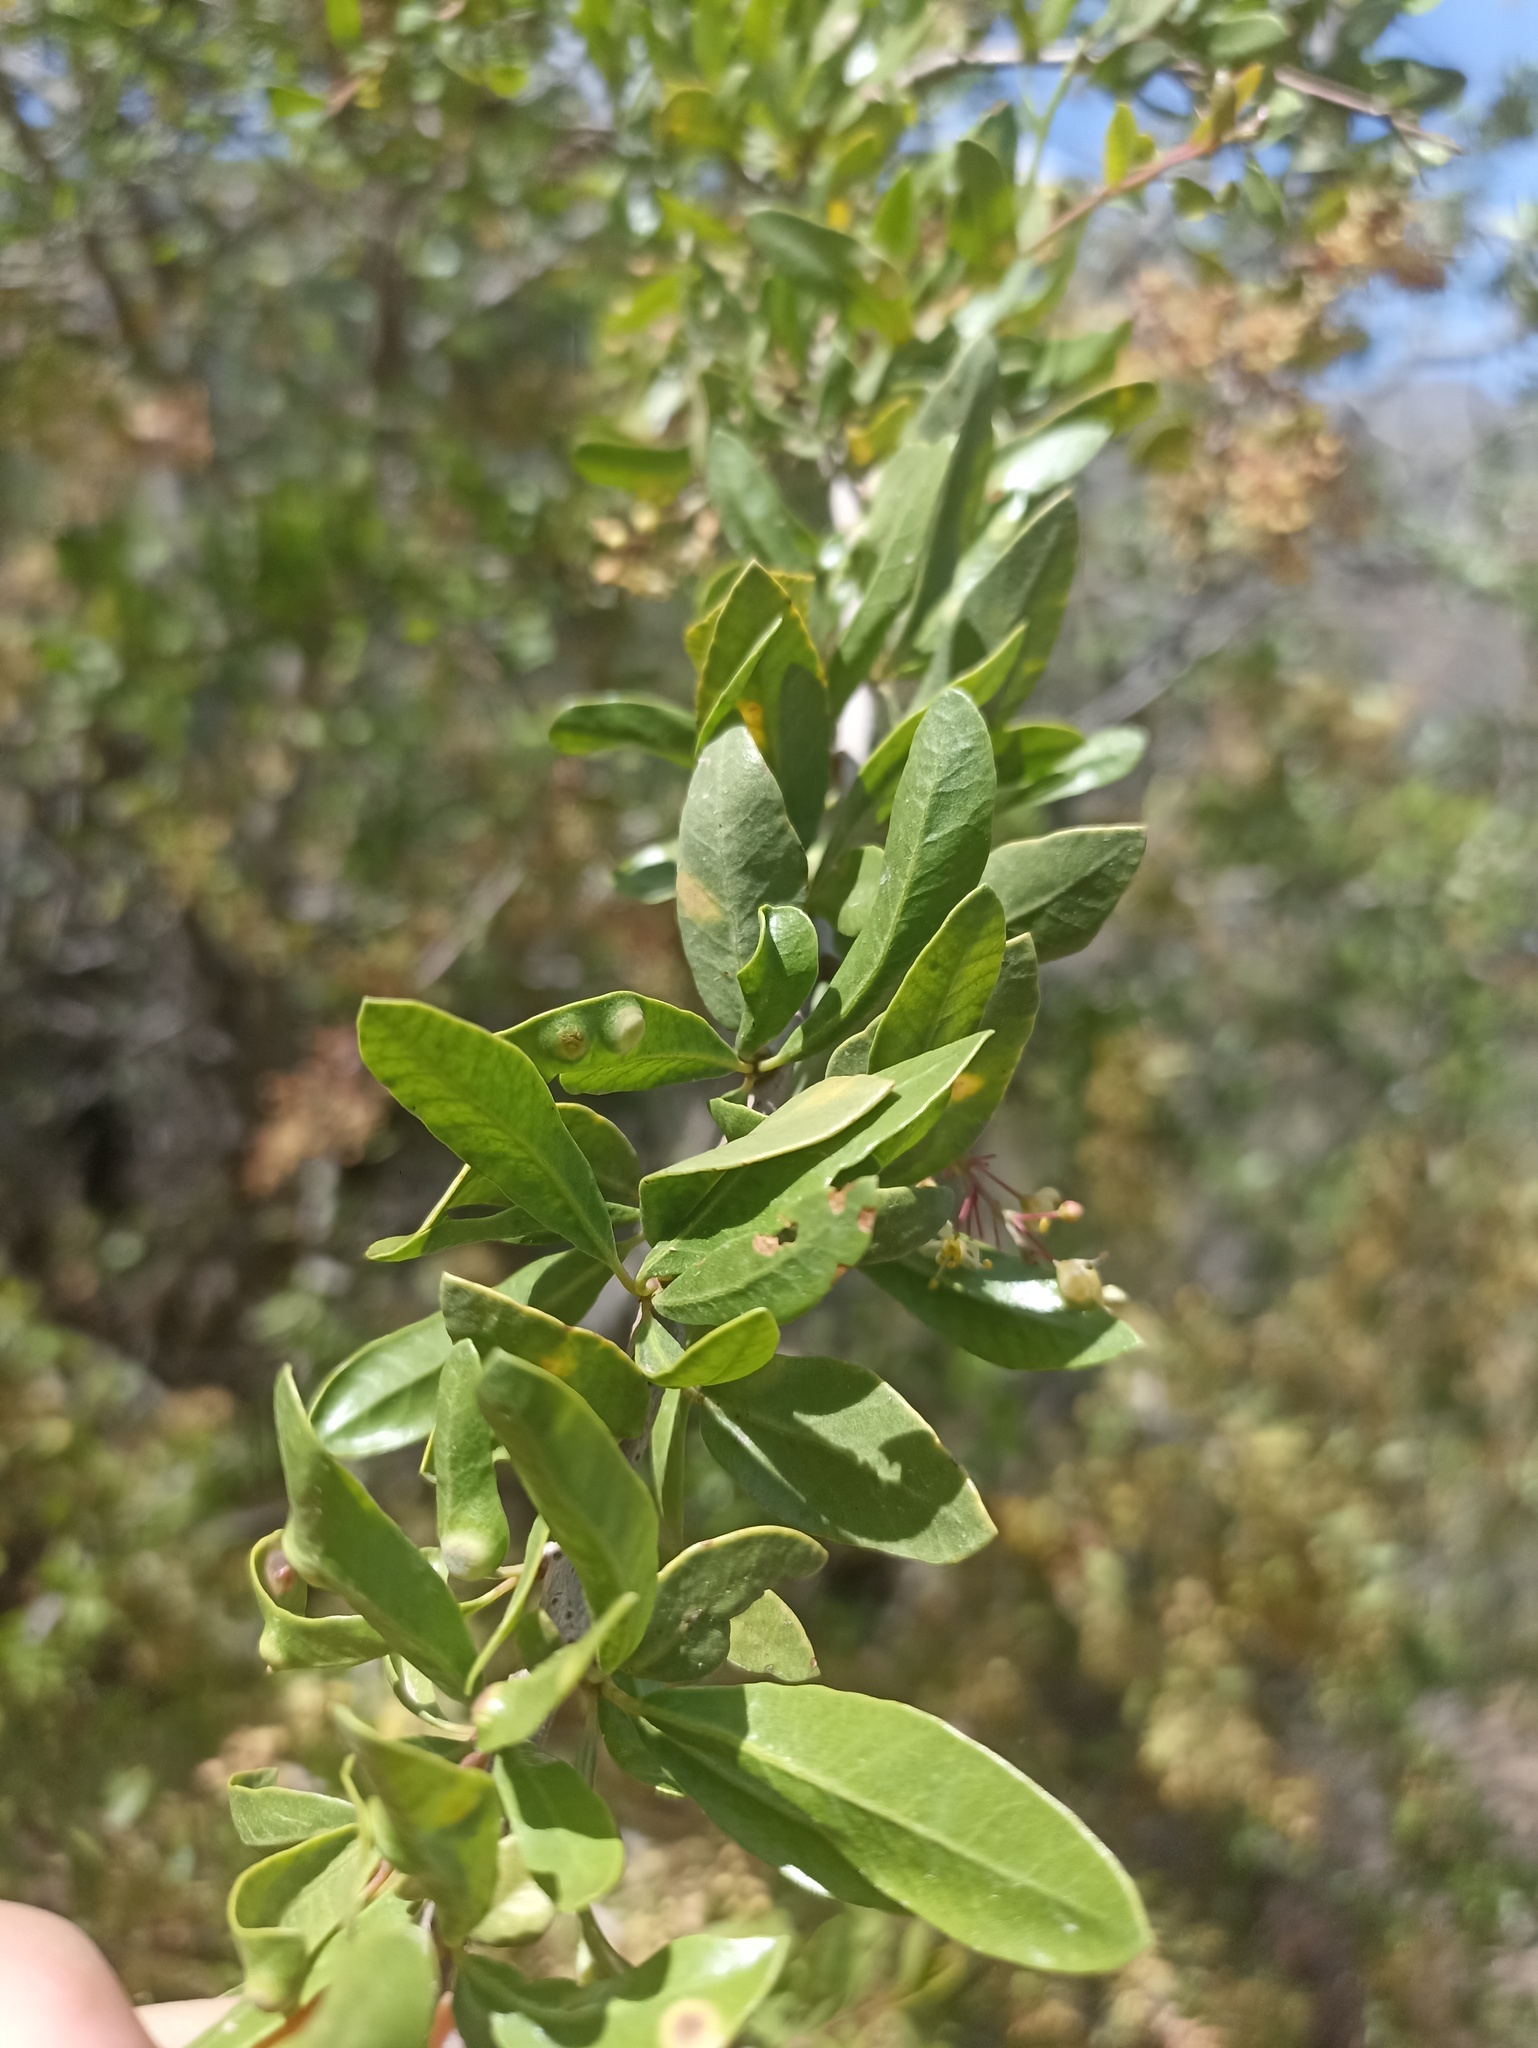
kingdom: Plantae
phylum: Tracheophyta
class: Magnoliopsida
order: Sapindales
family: Anacardiaceae
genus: Schinus
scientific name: Schinus polygama
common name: Hardee peppertree
